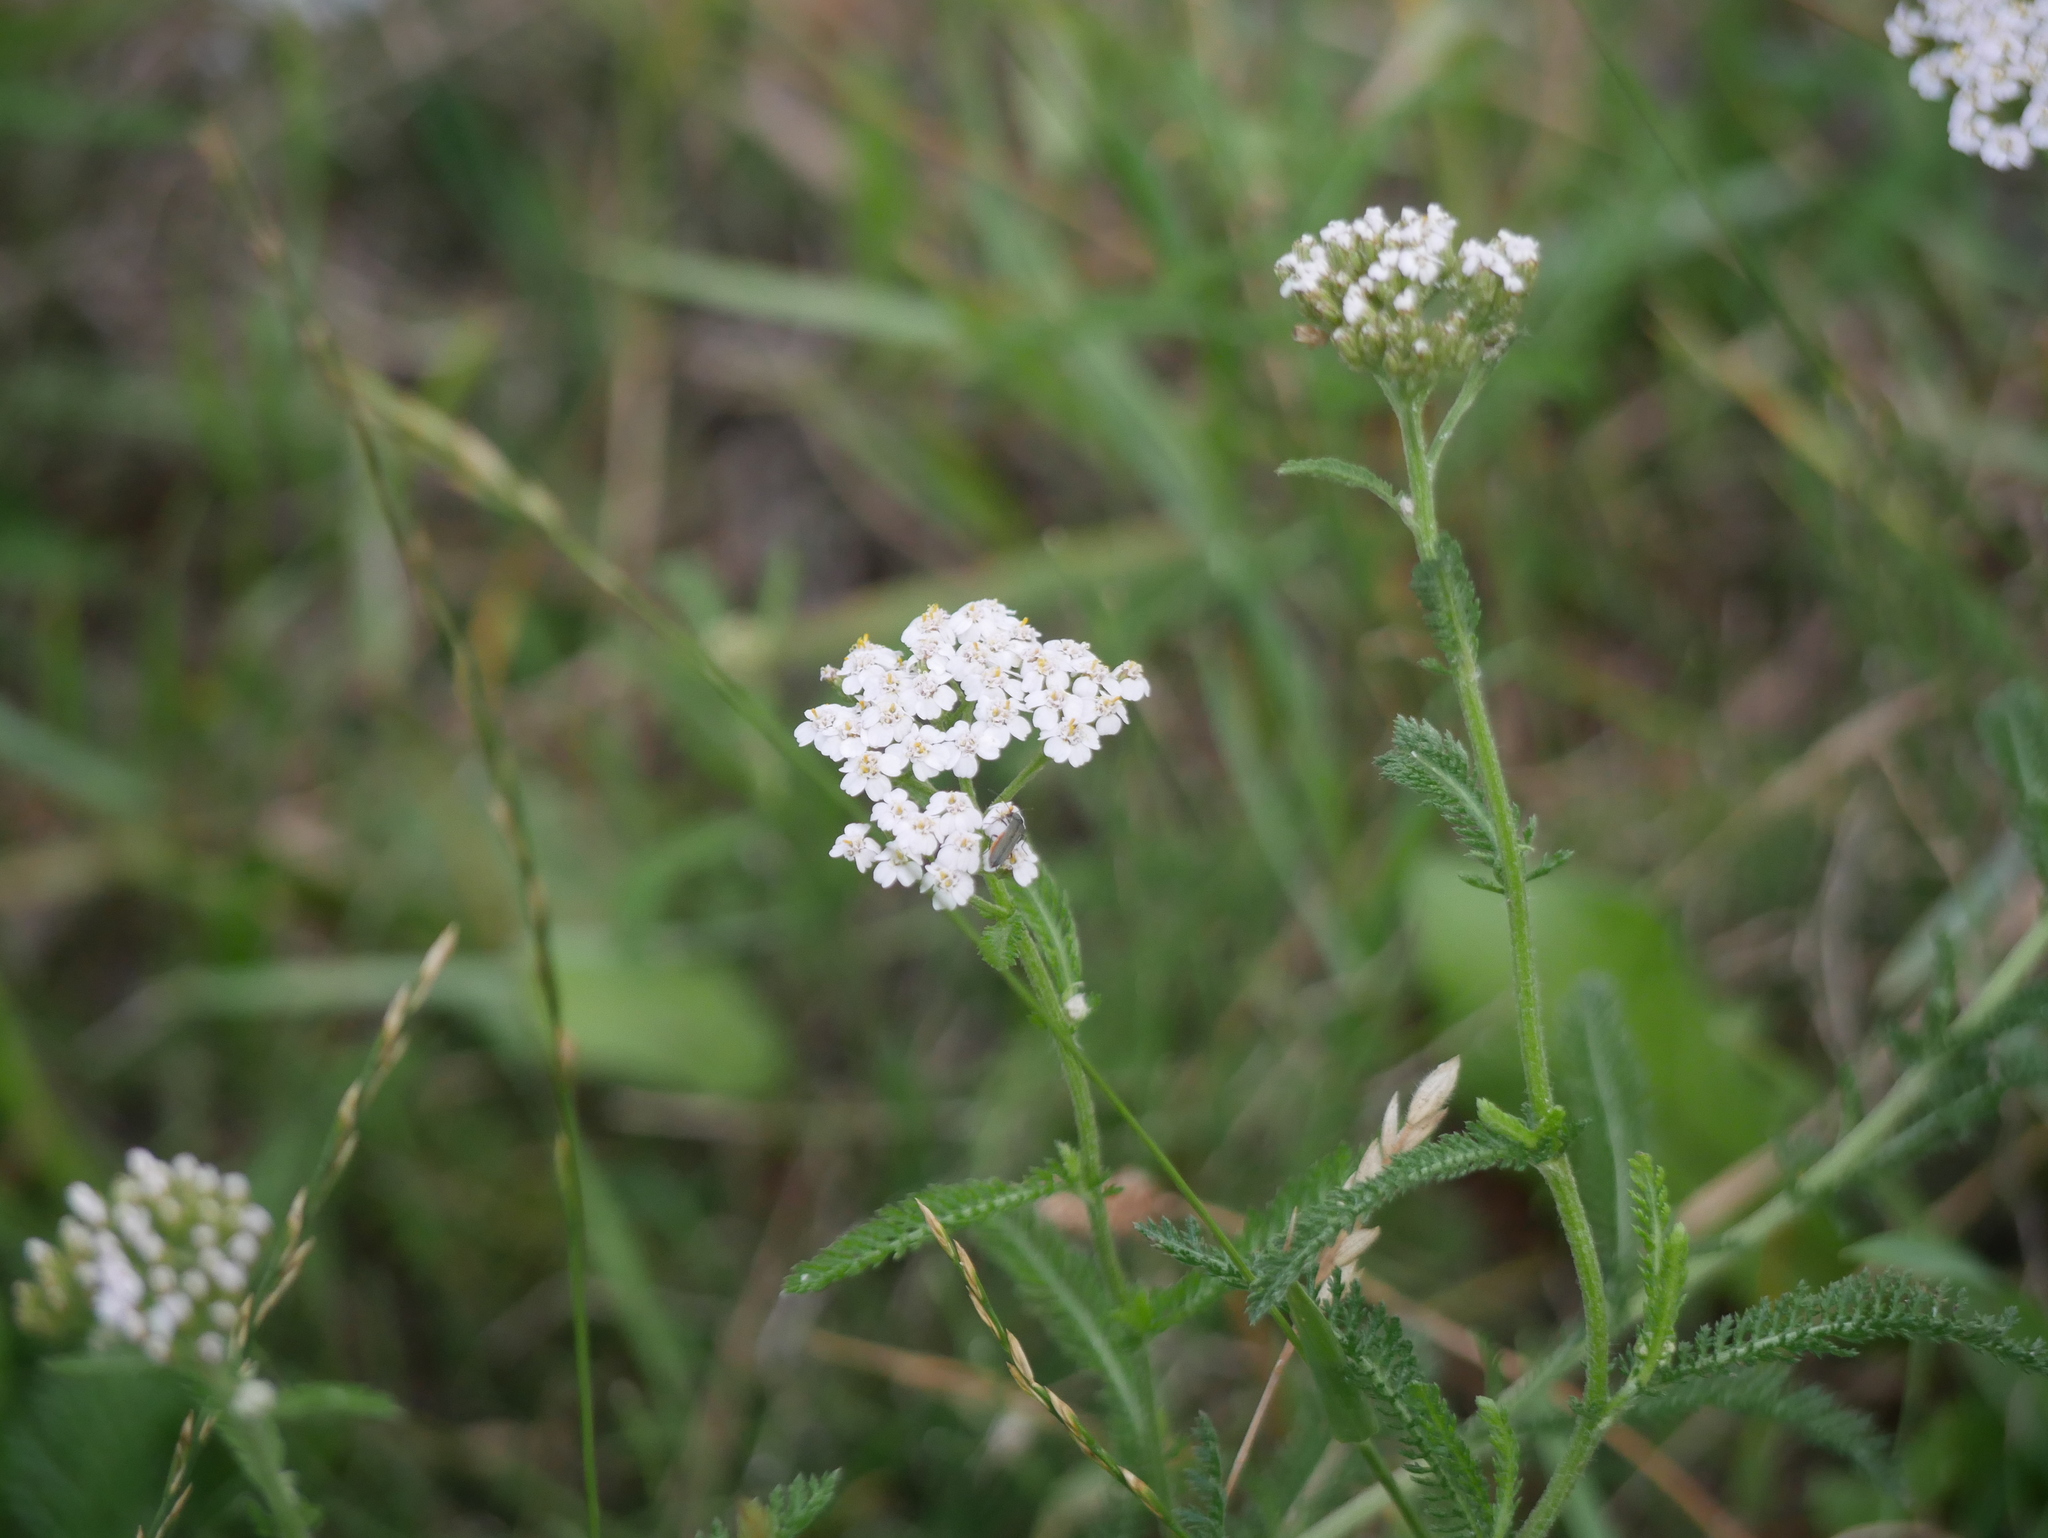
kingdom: Plantae
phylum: Tracheophyta
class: Magnoliopsida
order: Asterales
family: Asteraceae
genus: Achillea
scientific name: Achillea millefolium
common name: Yarrow
